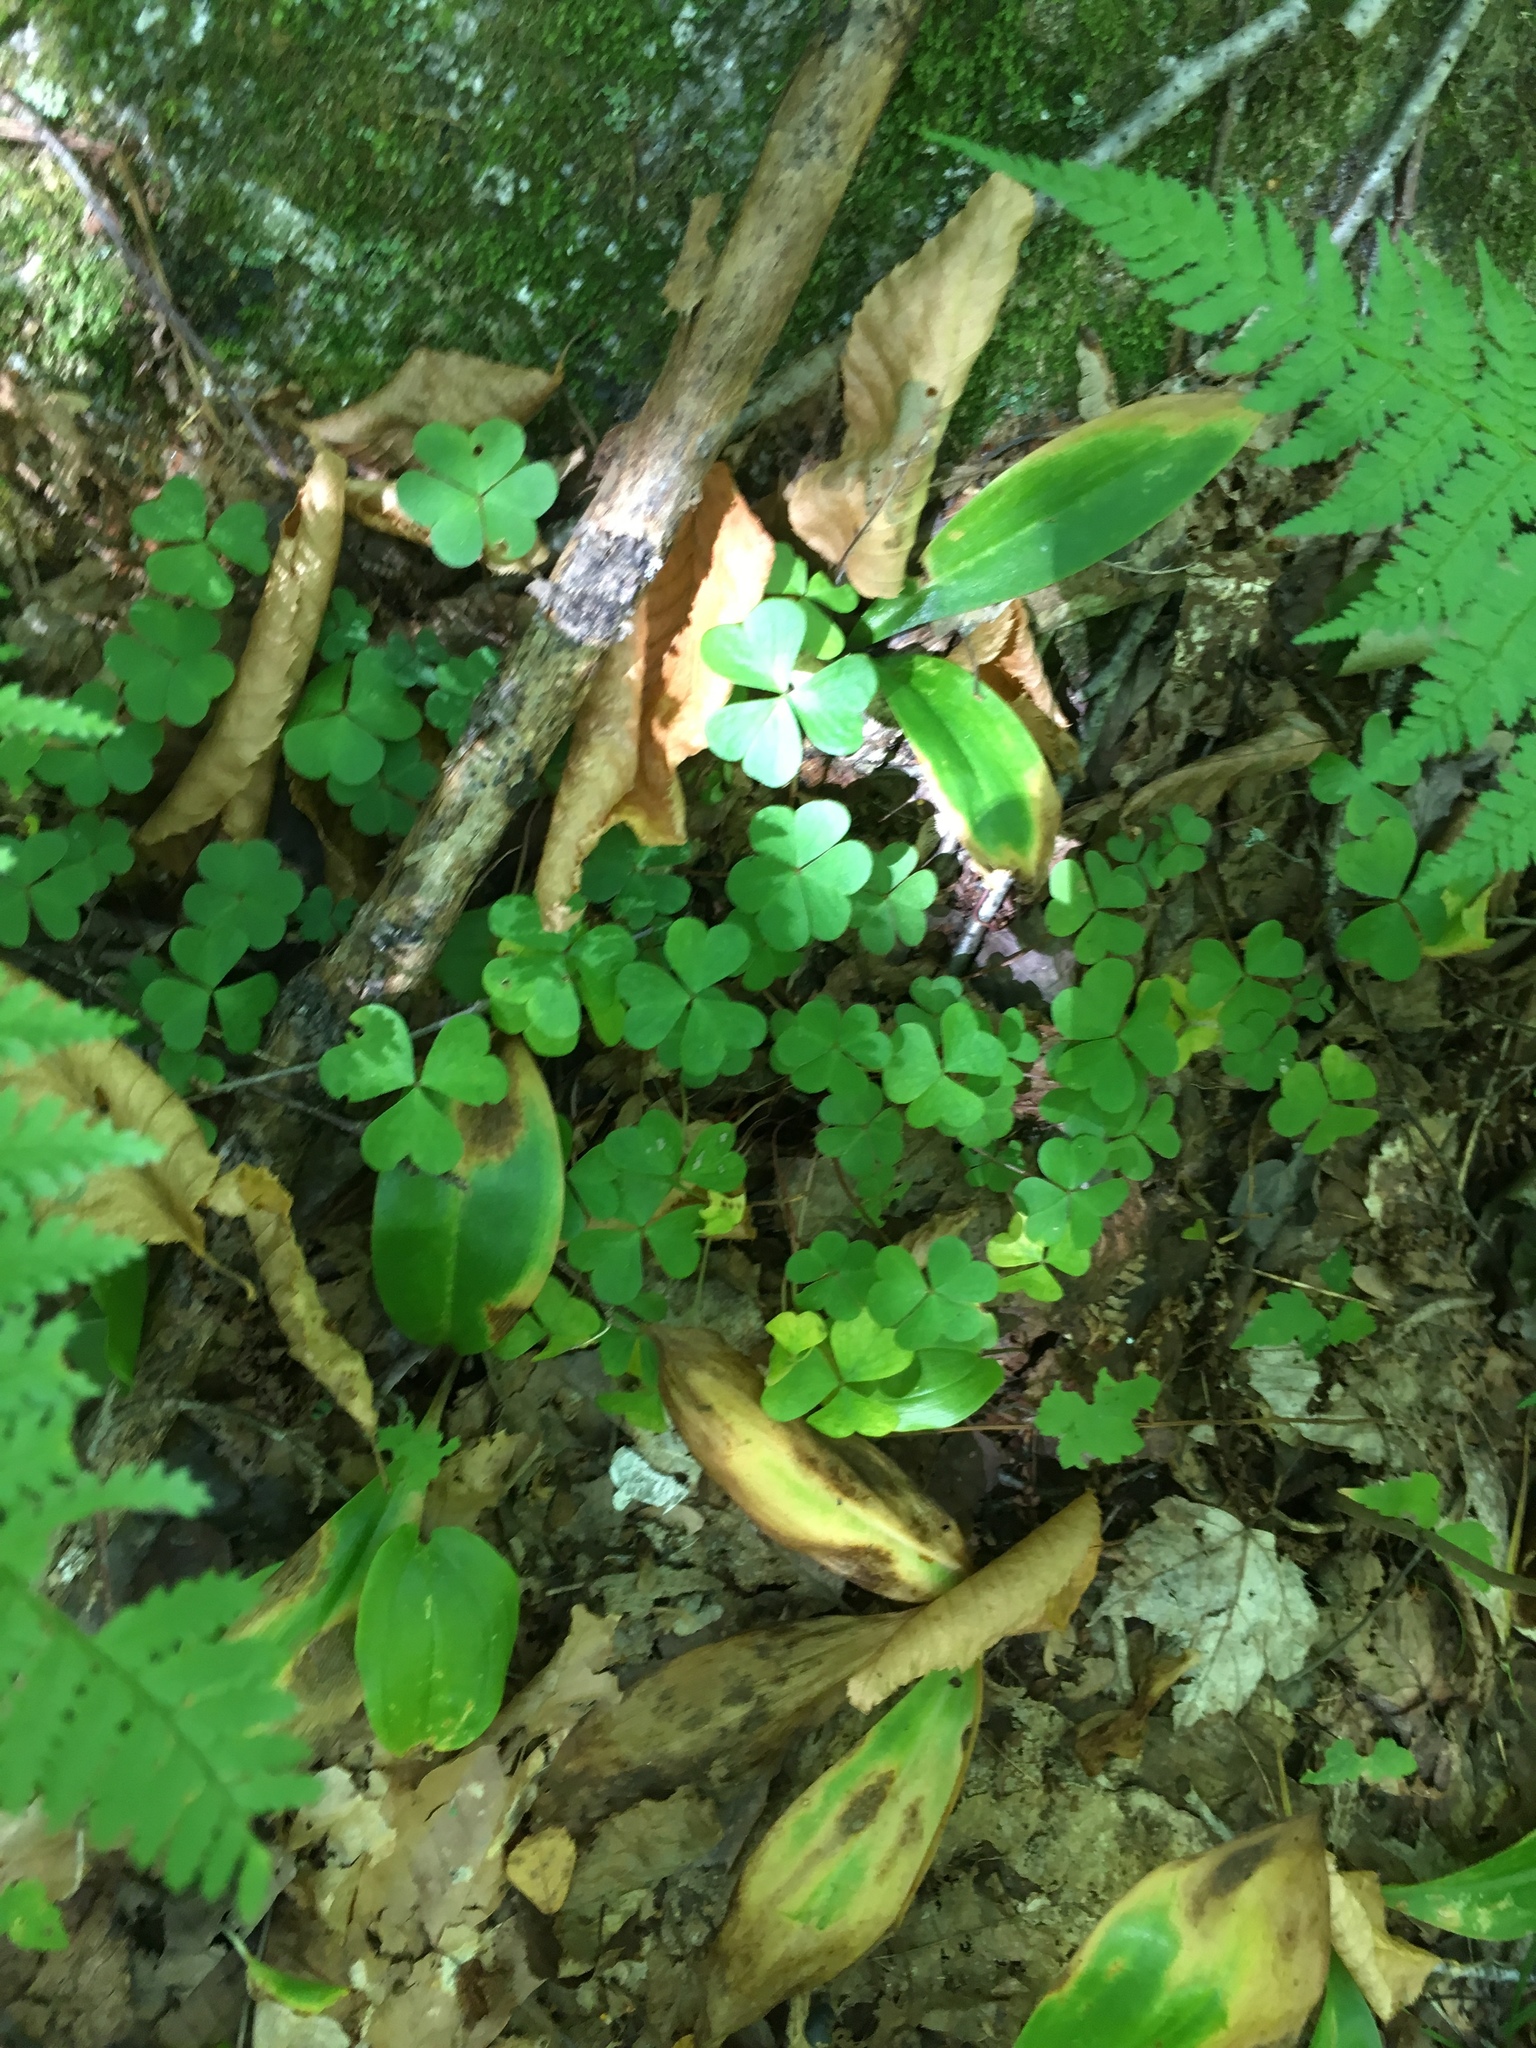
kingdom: Plantae
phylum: Tracheophyta
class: Magnoliopsida
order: Oxalidales
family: Oxalidaceae
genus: Oxalis
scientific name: Oxalis montana
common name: American wood-sorrel
